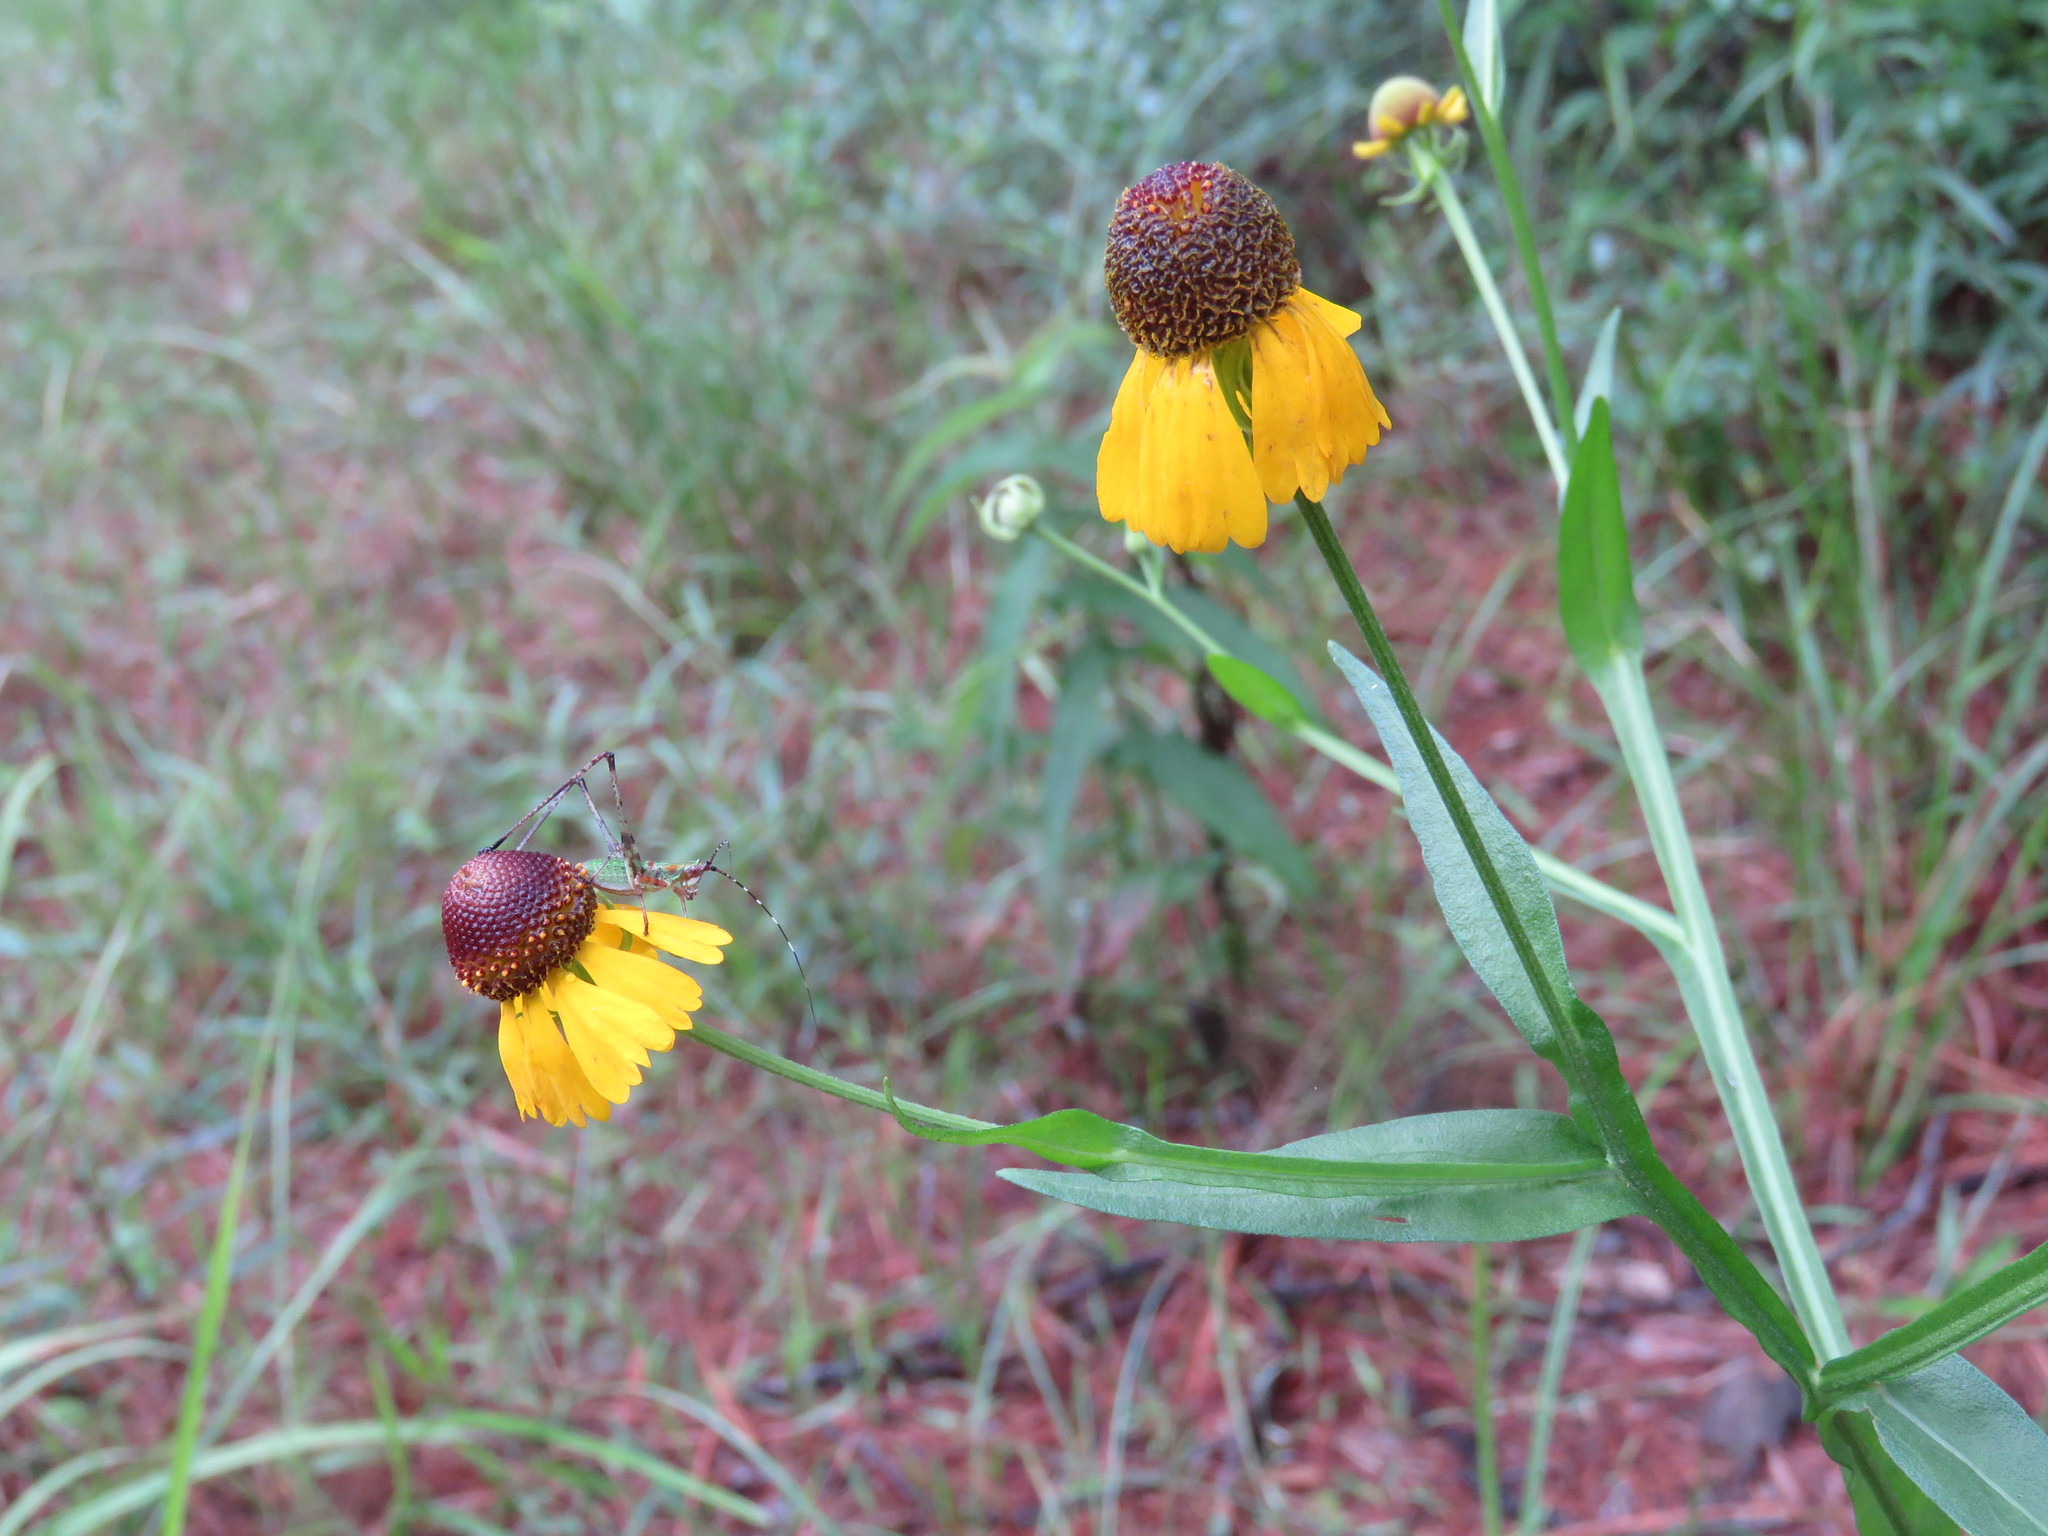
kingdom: Plantae
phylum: Tracheophyta
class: Magnoliopsida
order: Asterales
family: Asteraceae
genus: Helenium
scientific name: Helenium flexuosum
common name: Naked-flowered sneezeweed
